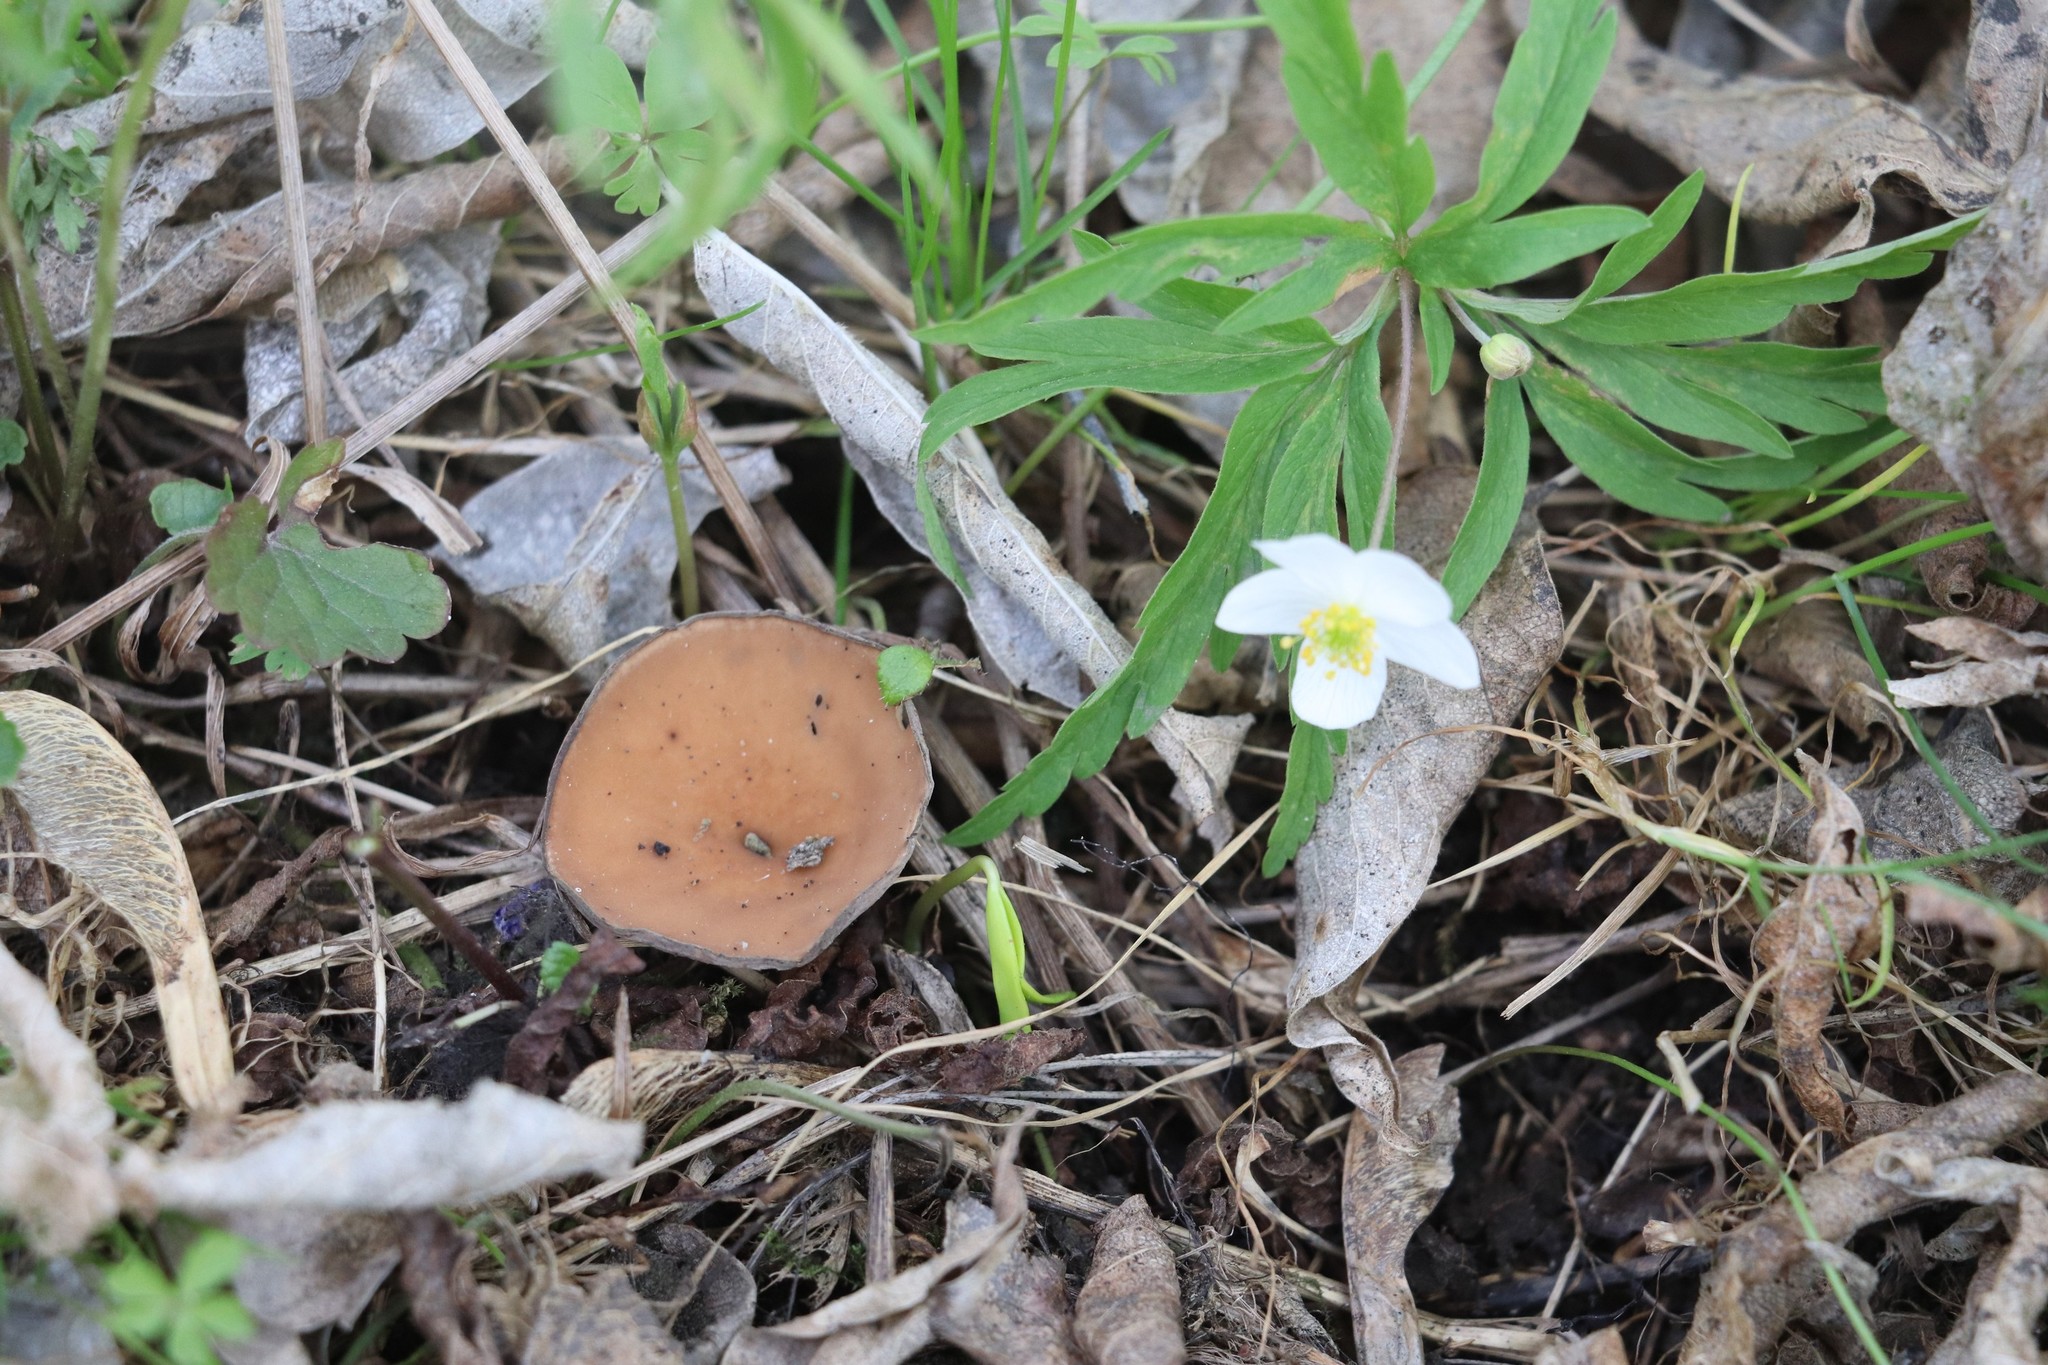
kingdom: Fungi
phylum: Ascomycota
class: Leotiomycetes
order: Helotiales
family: Sclerotiniaceae
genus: Dumontinia
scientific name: Dumontinia tuberosa
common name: Anemone cup
